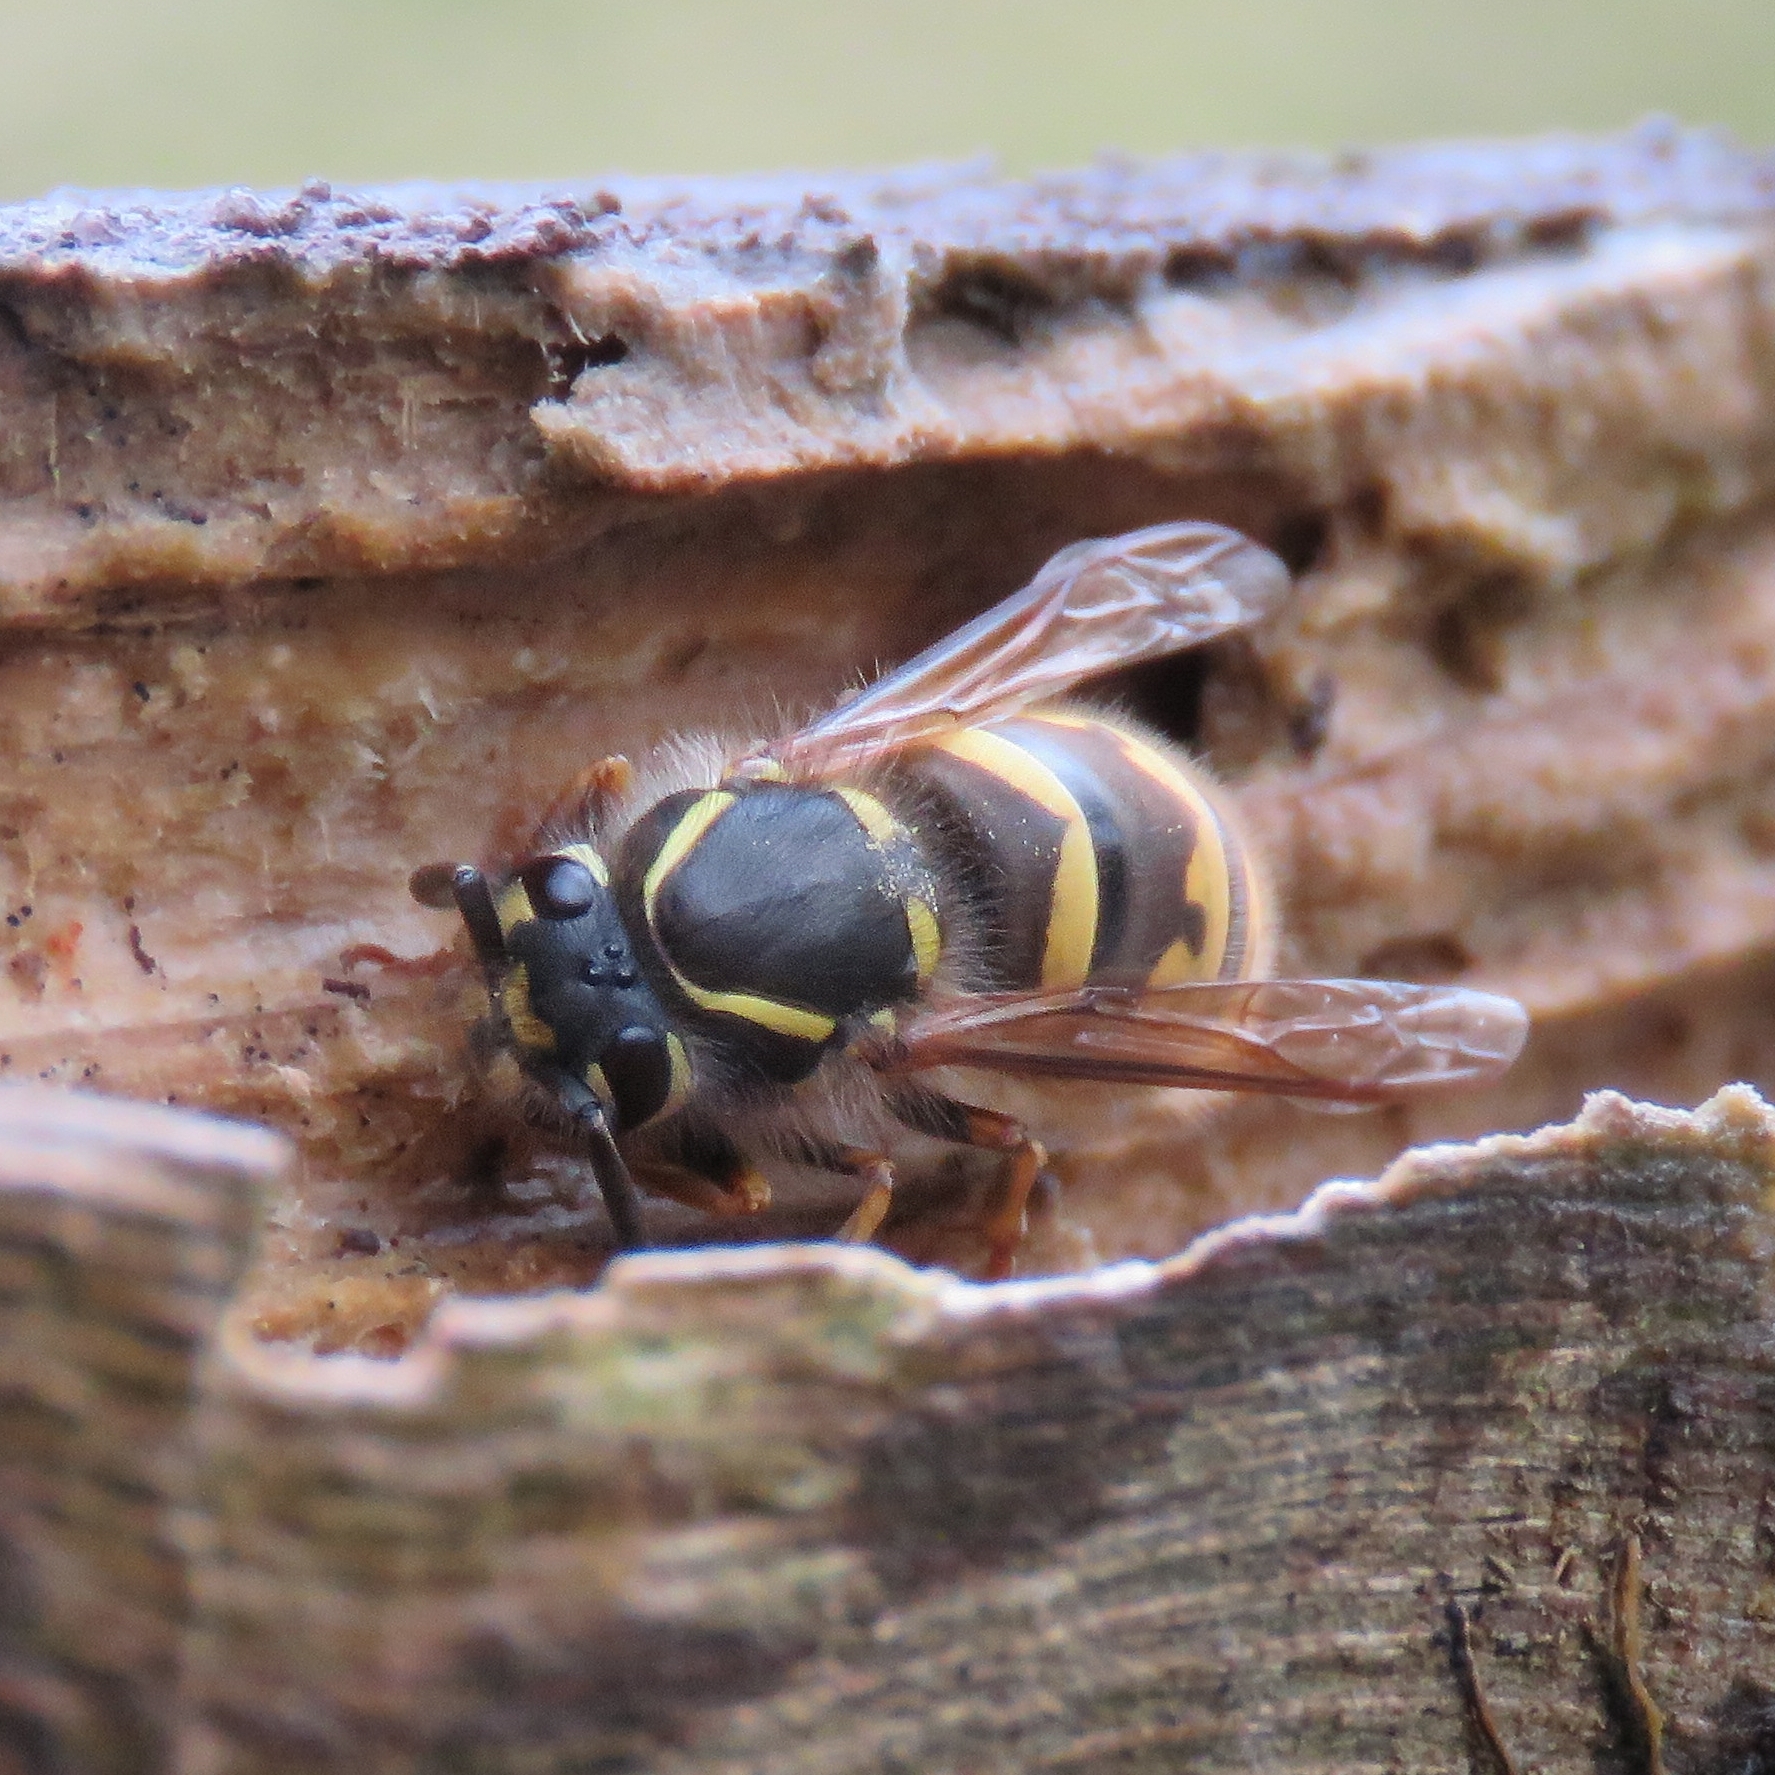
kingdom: Animalia
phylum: Arthropoda
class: Insecta
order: Hymenoptera
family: Vespidae
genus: Vespula
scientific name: Vespula vulgaris
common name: Common wasp
